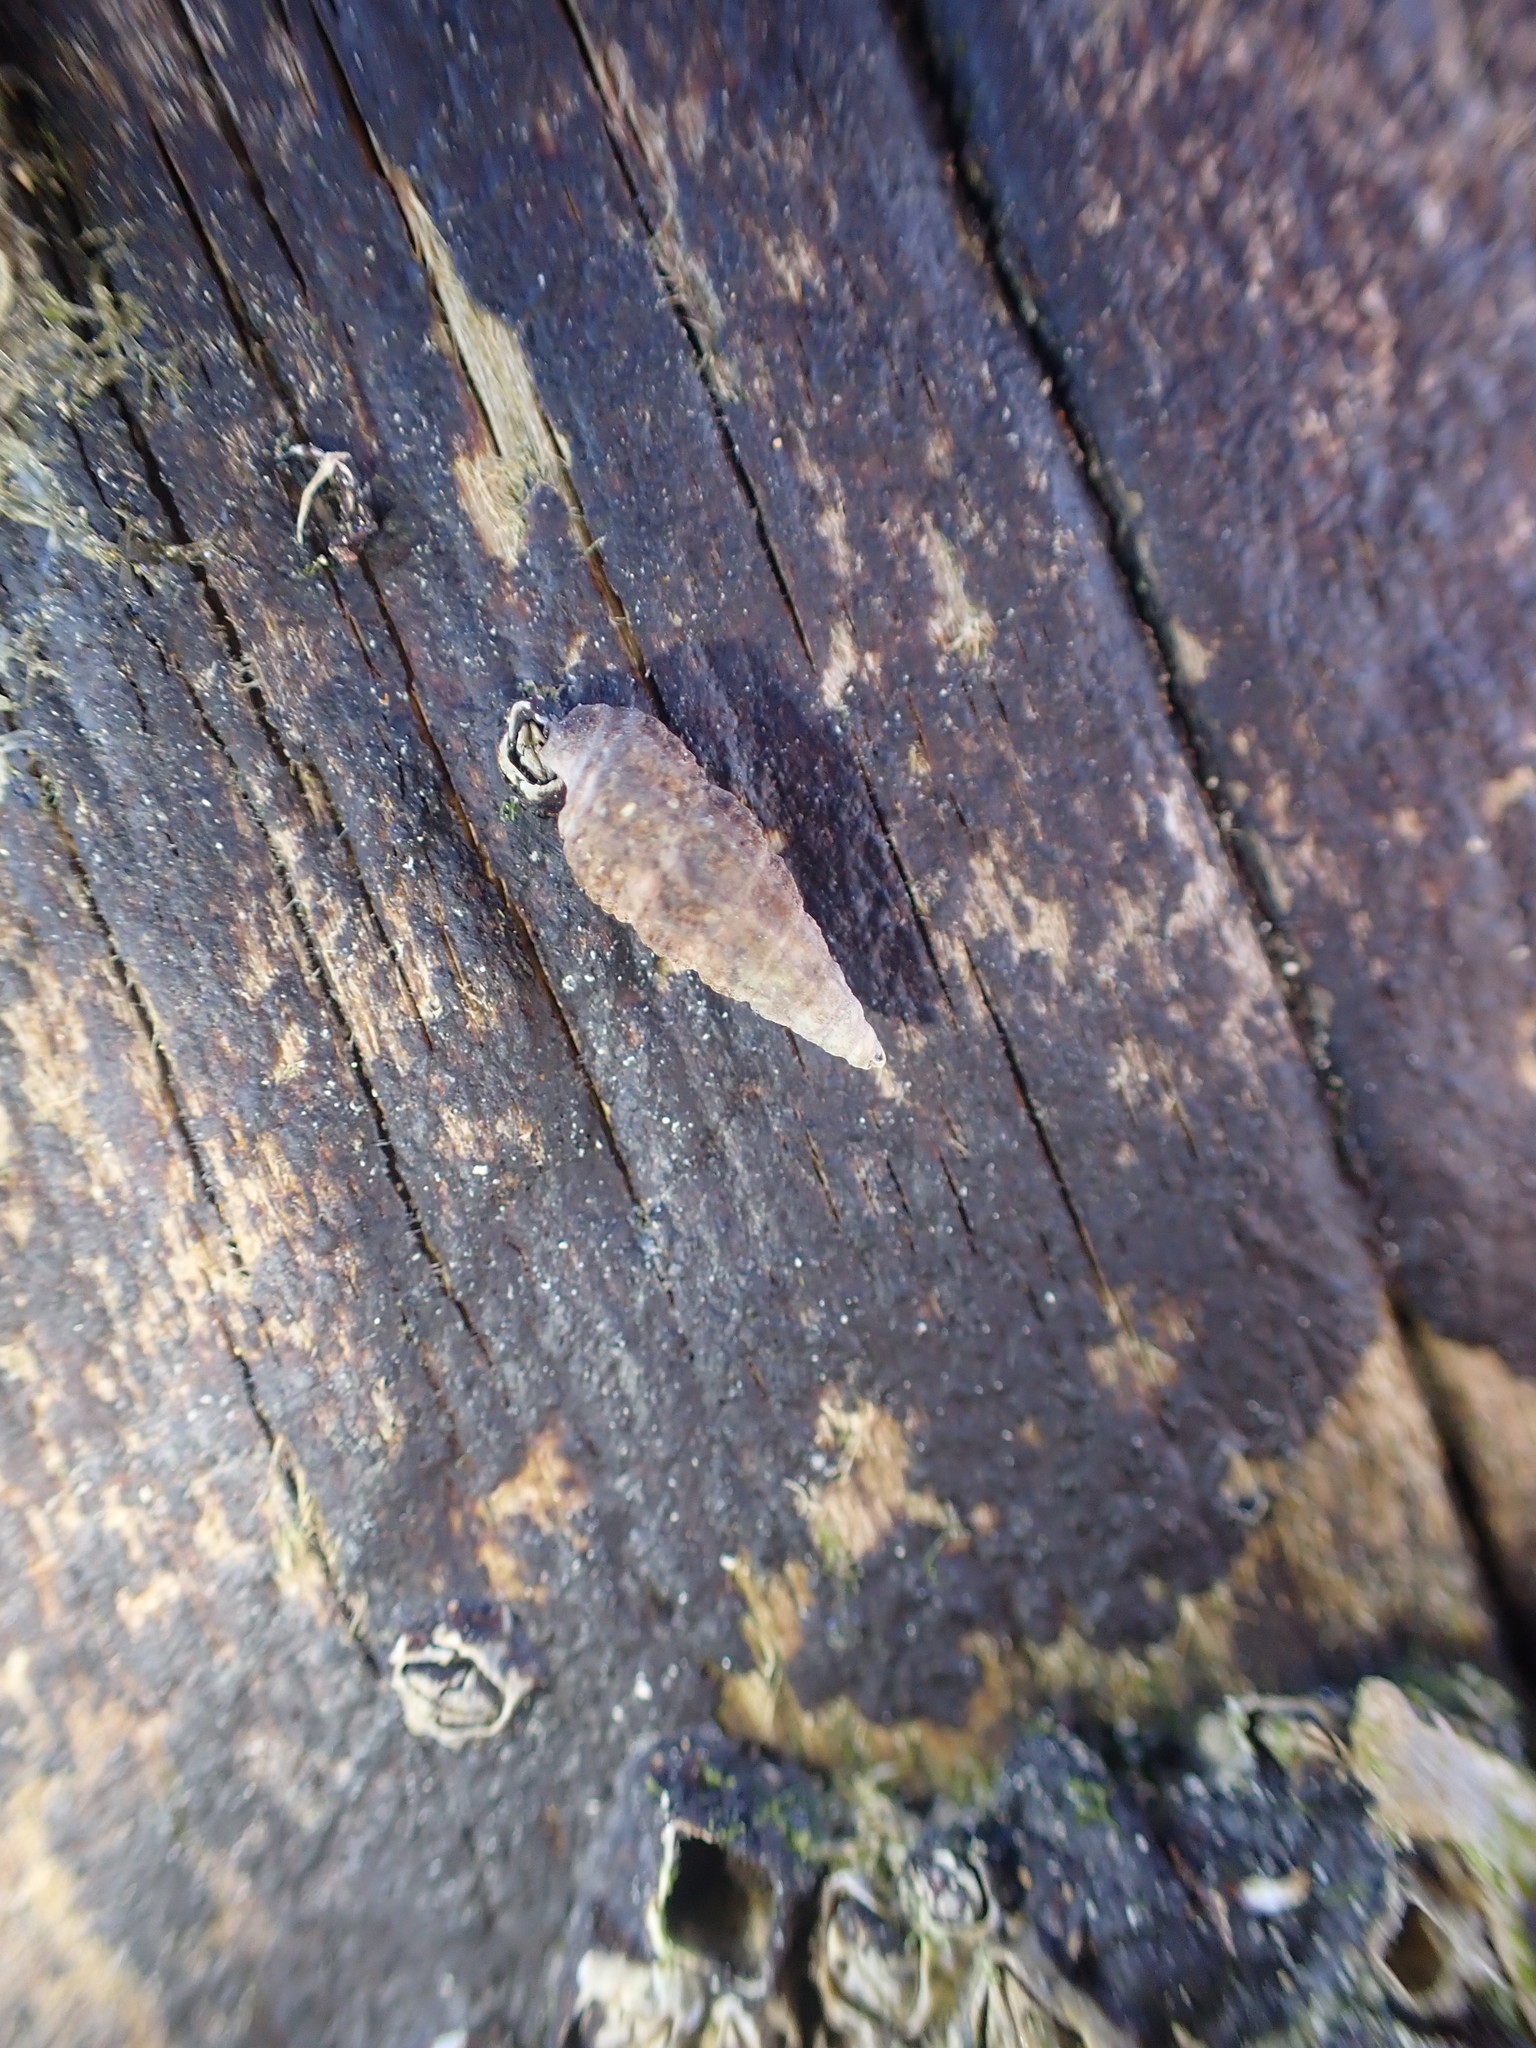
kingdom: Animalia
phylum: Mollusca
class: Gastropoda
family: Batillariidae
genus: Zeacumantus
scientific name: Zeacumantus subcarinatus
